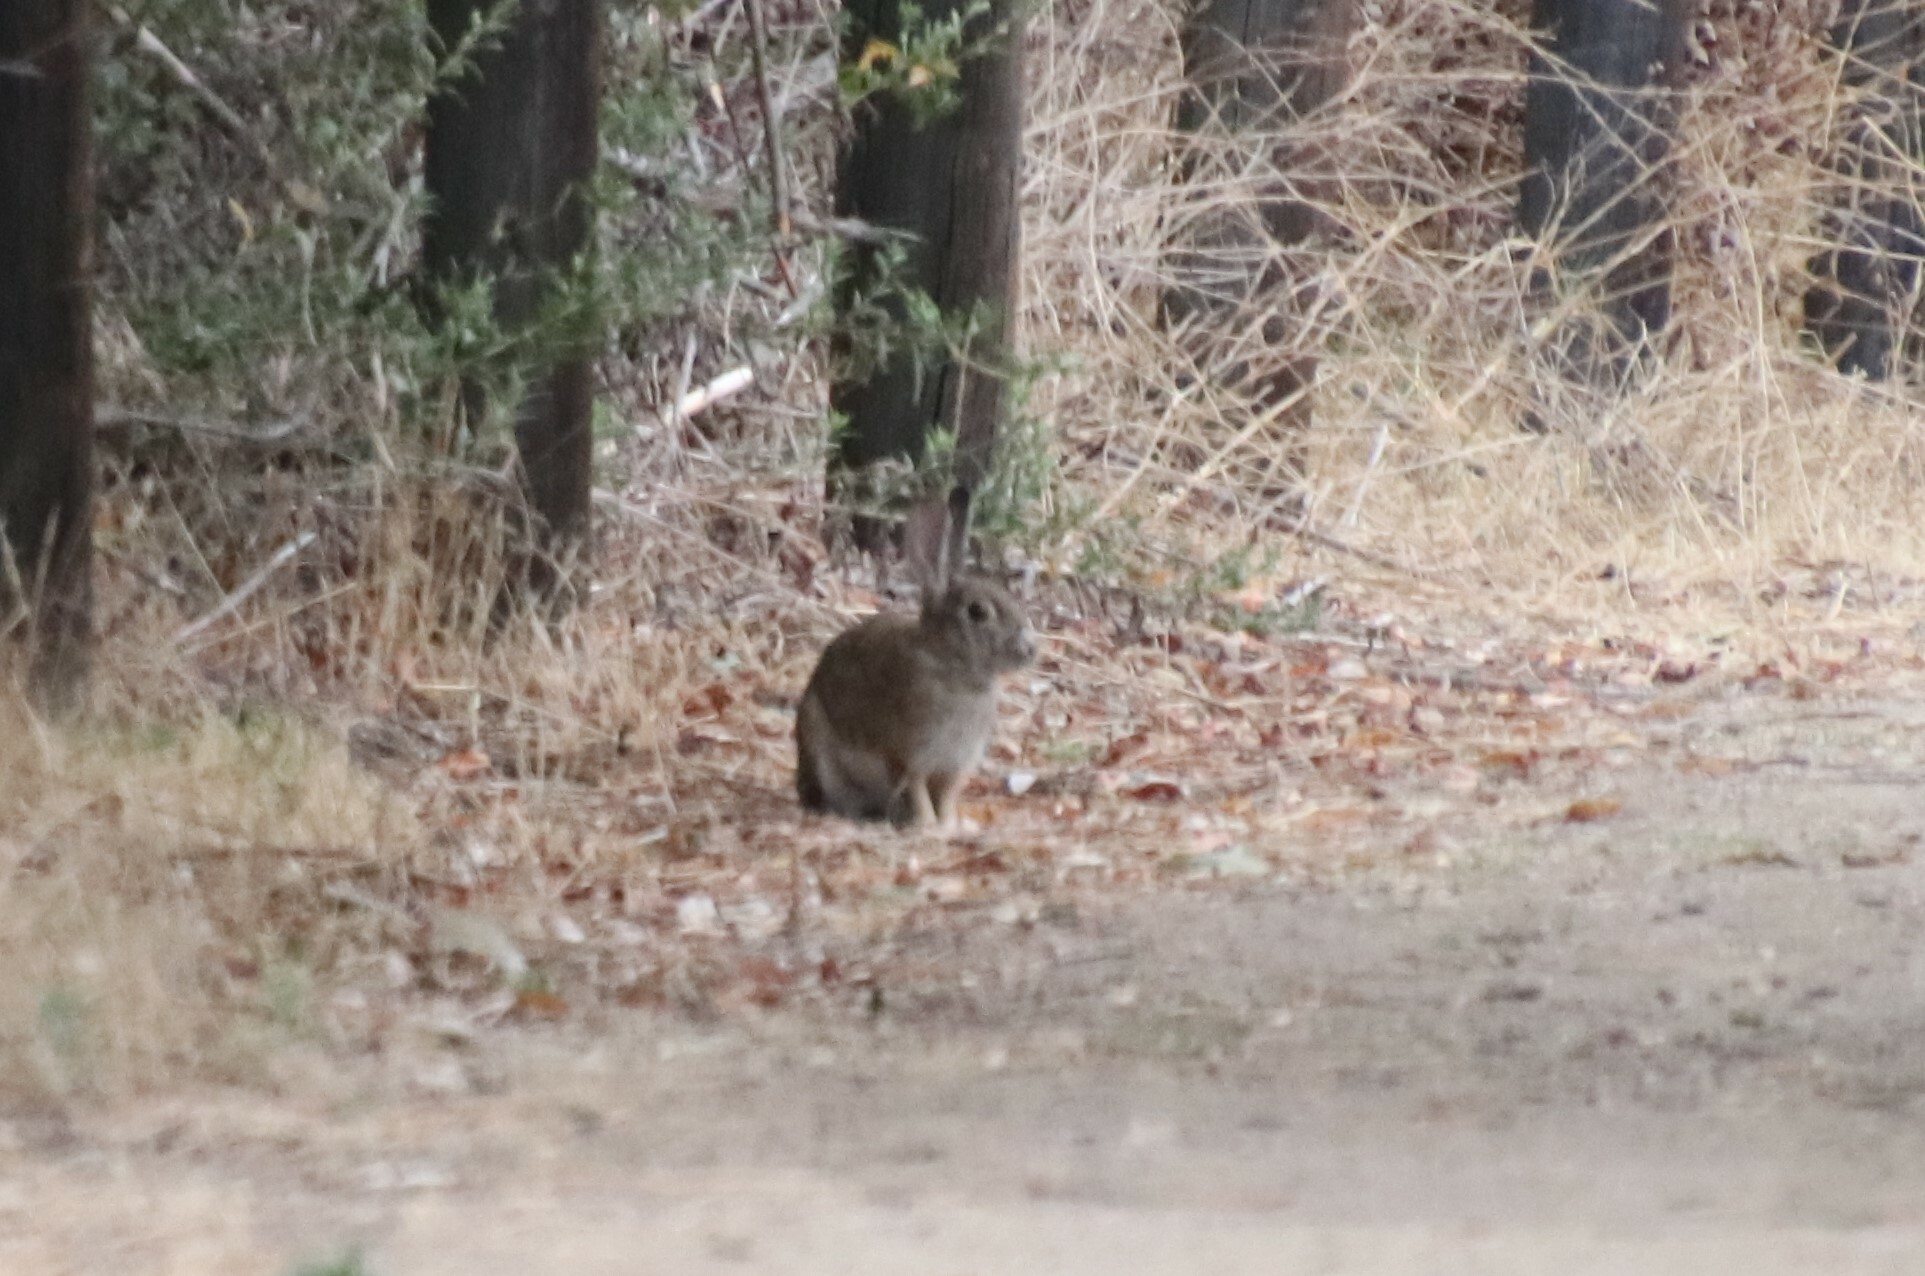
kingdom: Animalia
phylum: Chordata
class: Mammalia
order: Lagomorpha
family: Leporidae
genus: Sylvilagus
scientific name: Sylvilagus audubonii
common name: Desert cottontail
